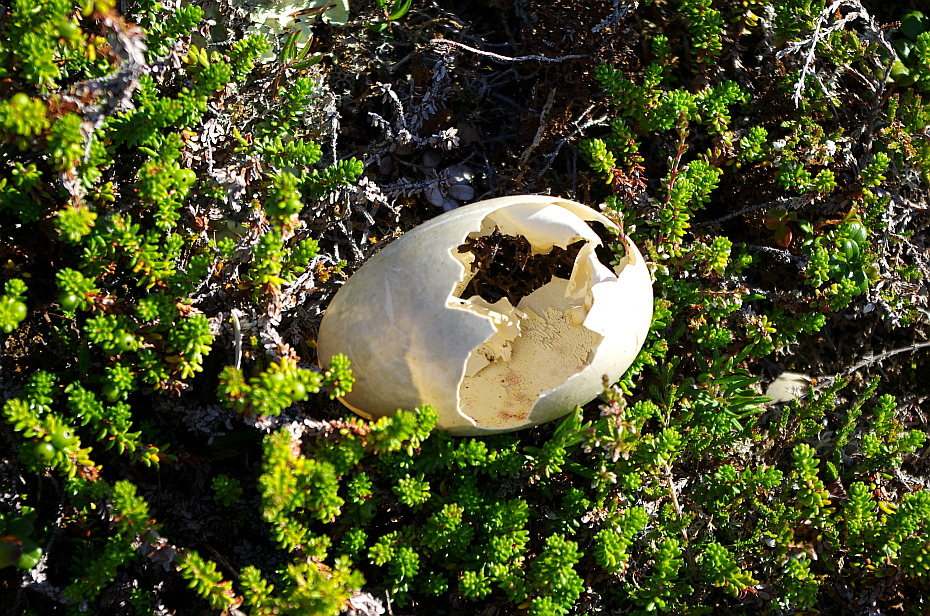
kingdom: Animalia
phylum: Chordata
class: Aves
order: Anseriformes
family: Anatidae
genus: Somateria
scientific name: Somateria mollissima
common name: Common eider
